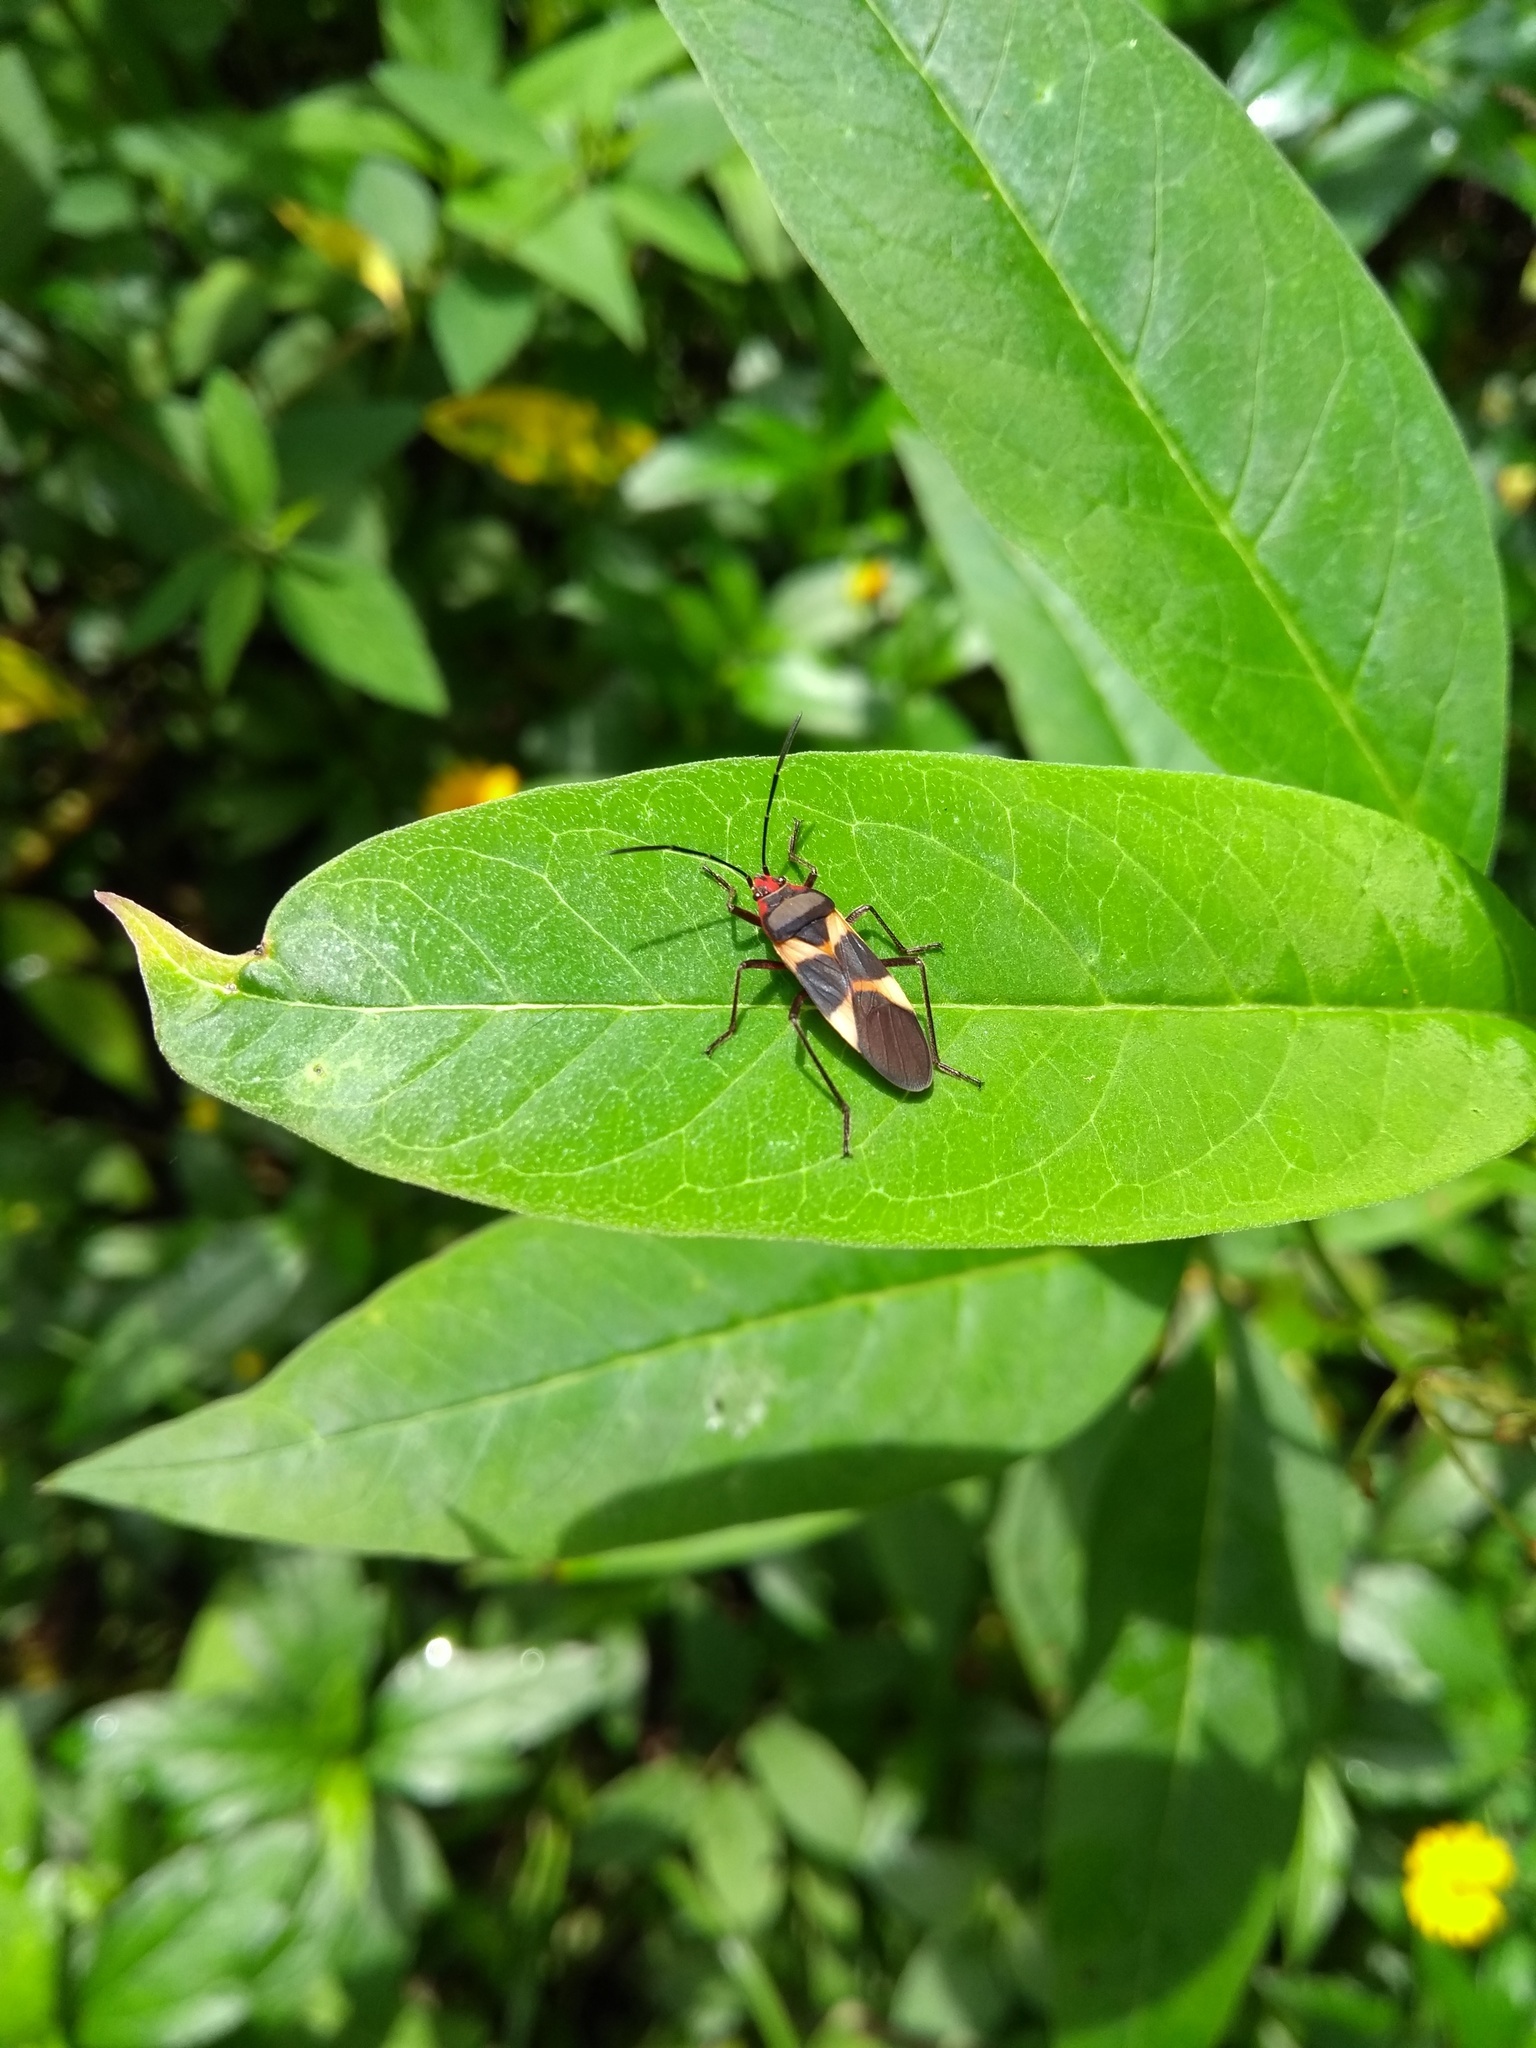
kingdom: Animalia
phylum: Arthropoda
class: Insecta
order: Hemiptera
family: Lygaeidae
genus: Oncopeltus
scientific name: Oncopeltus unifasciatellus
